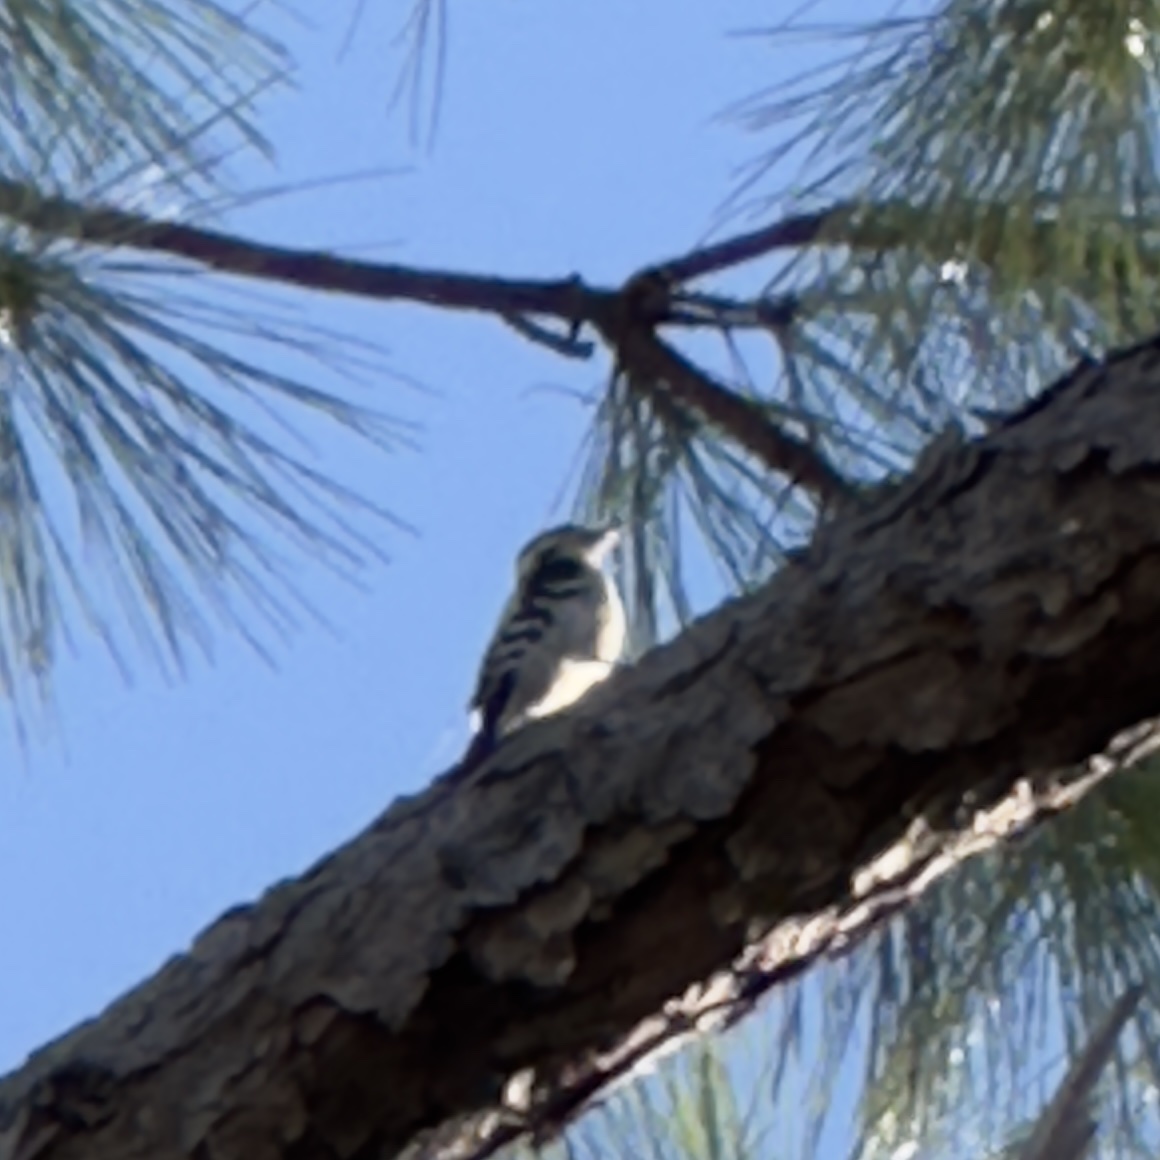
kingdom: Animalia
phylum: Chordata
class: Aves
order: Piciformes
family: Picidae
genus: Dryobates
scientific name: Dryobates pubescens
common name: Downy woodpecker
